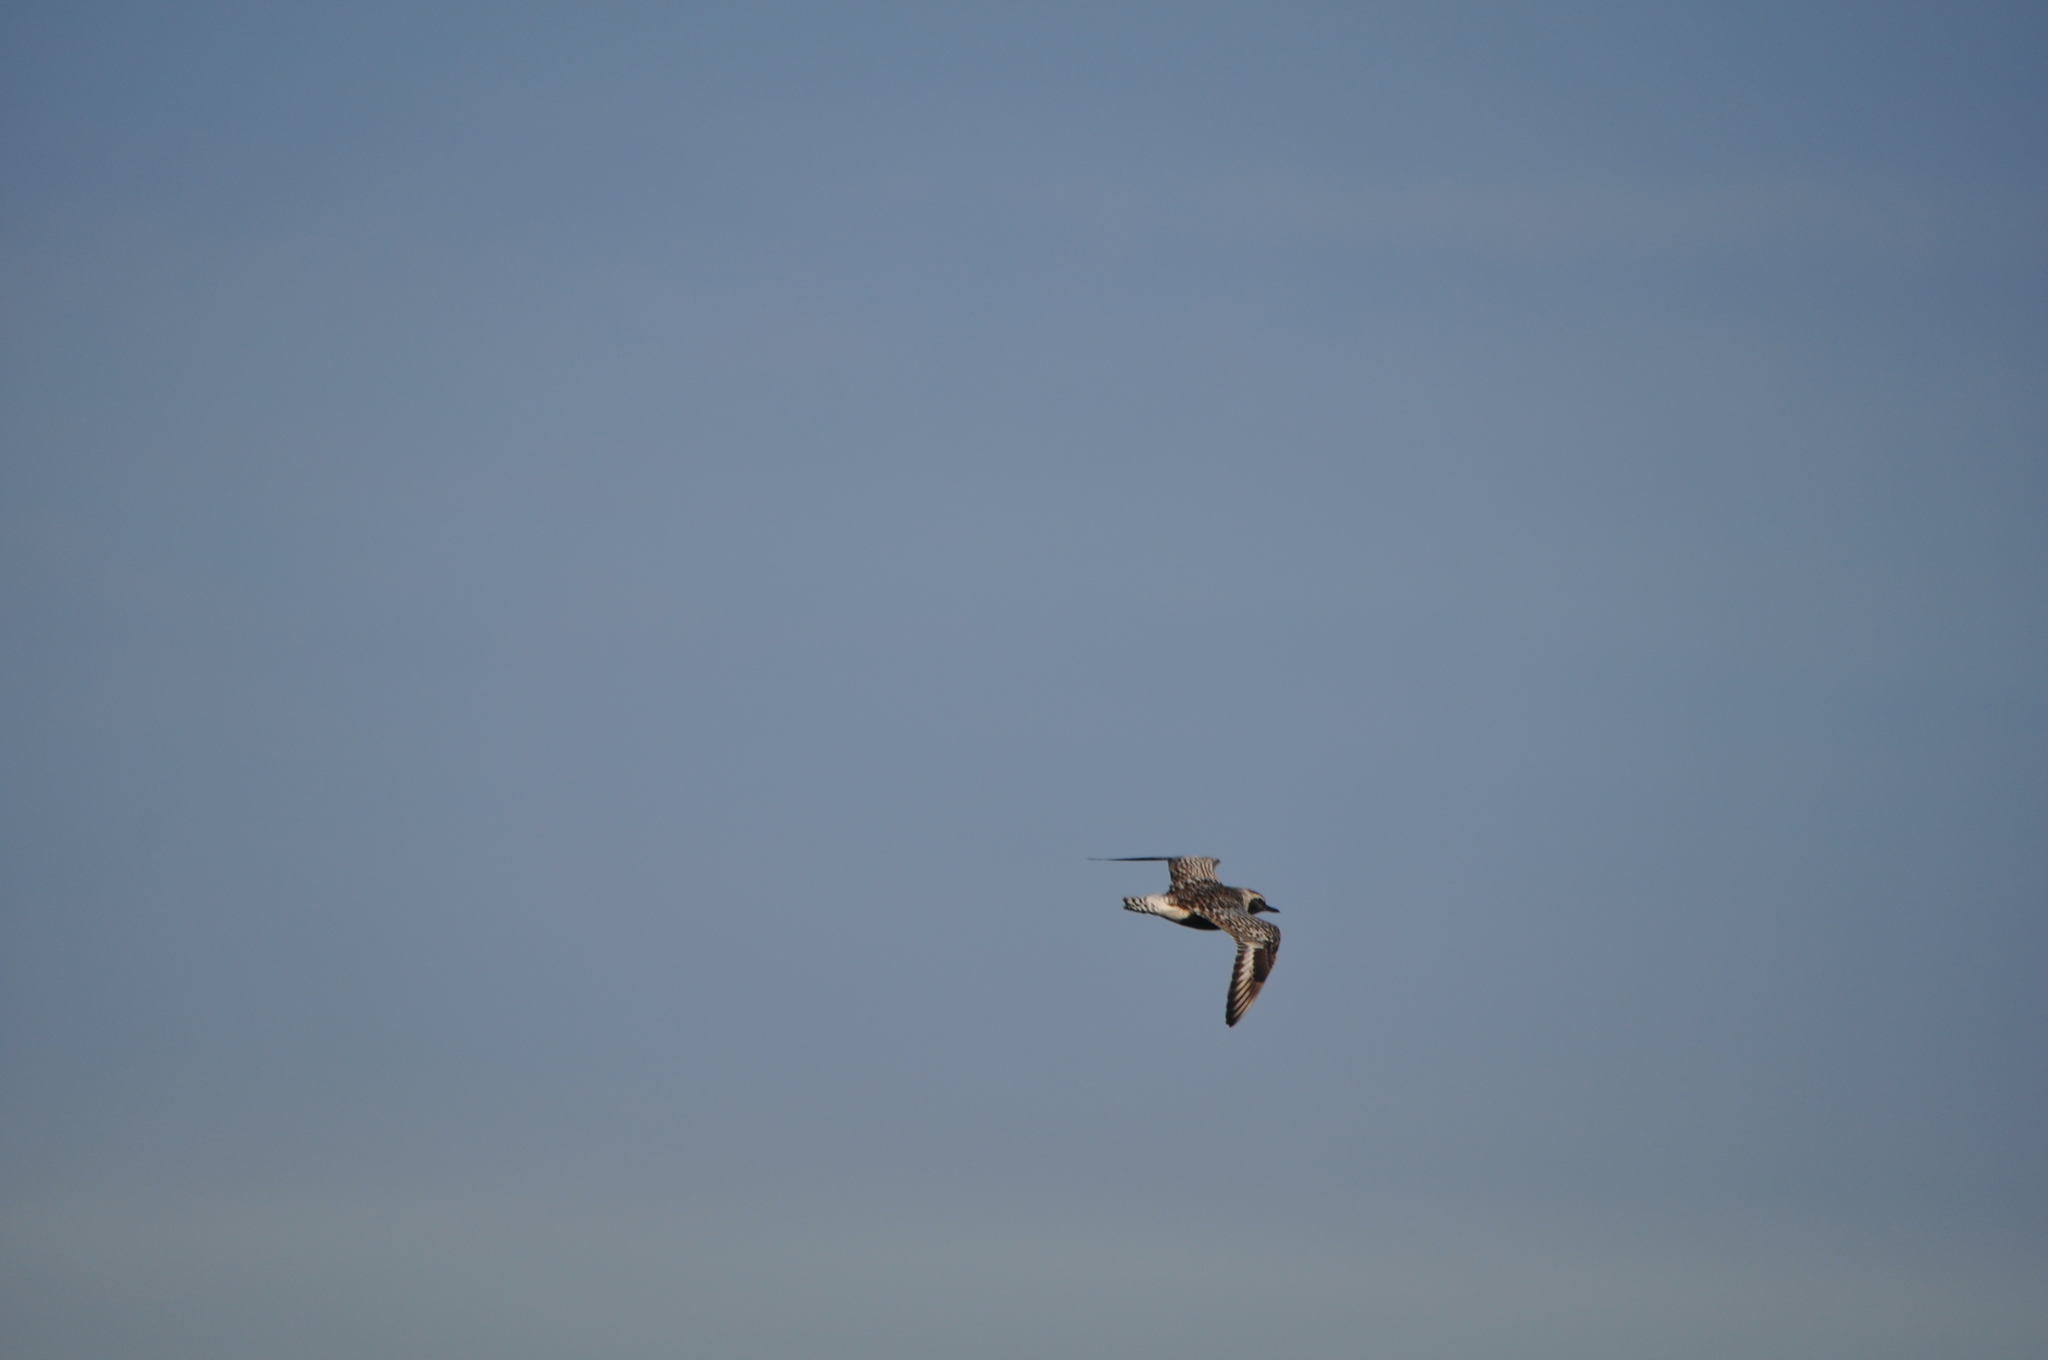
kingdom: Animalia
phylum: Chordata
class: Aves
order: Charadriiformes
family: Charadriidae
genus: Pluvialis
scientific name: Pluvialis squatarola
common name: Grey plover
